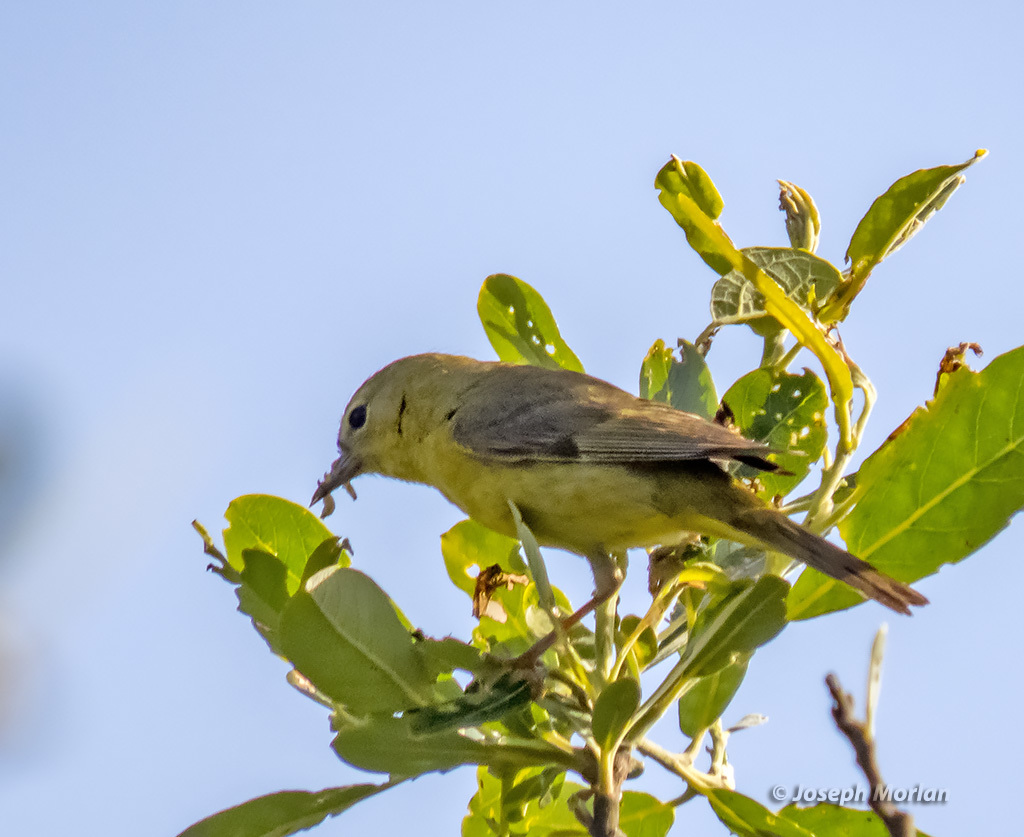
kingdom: Animalia
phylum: Chordata
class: Aves
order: Passeriformes
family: Parulidae
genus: Leiothlypis
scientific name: Leiothlypis celata
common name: Orange-crowned warbler
